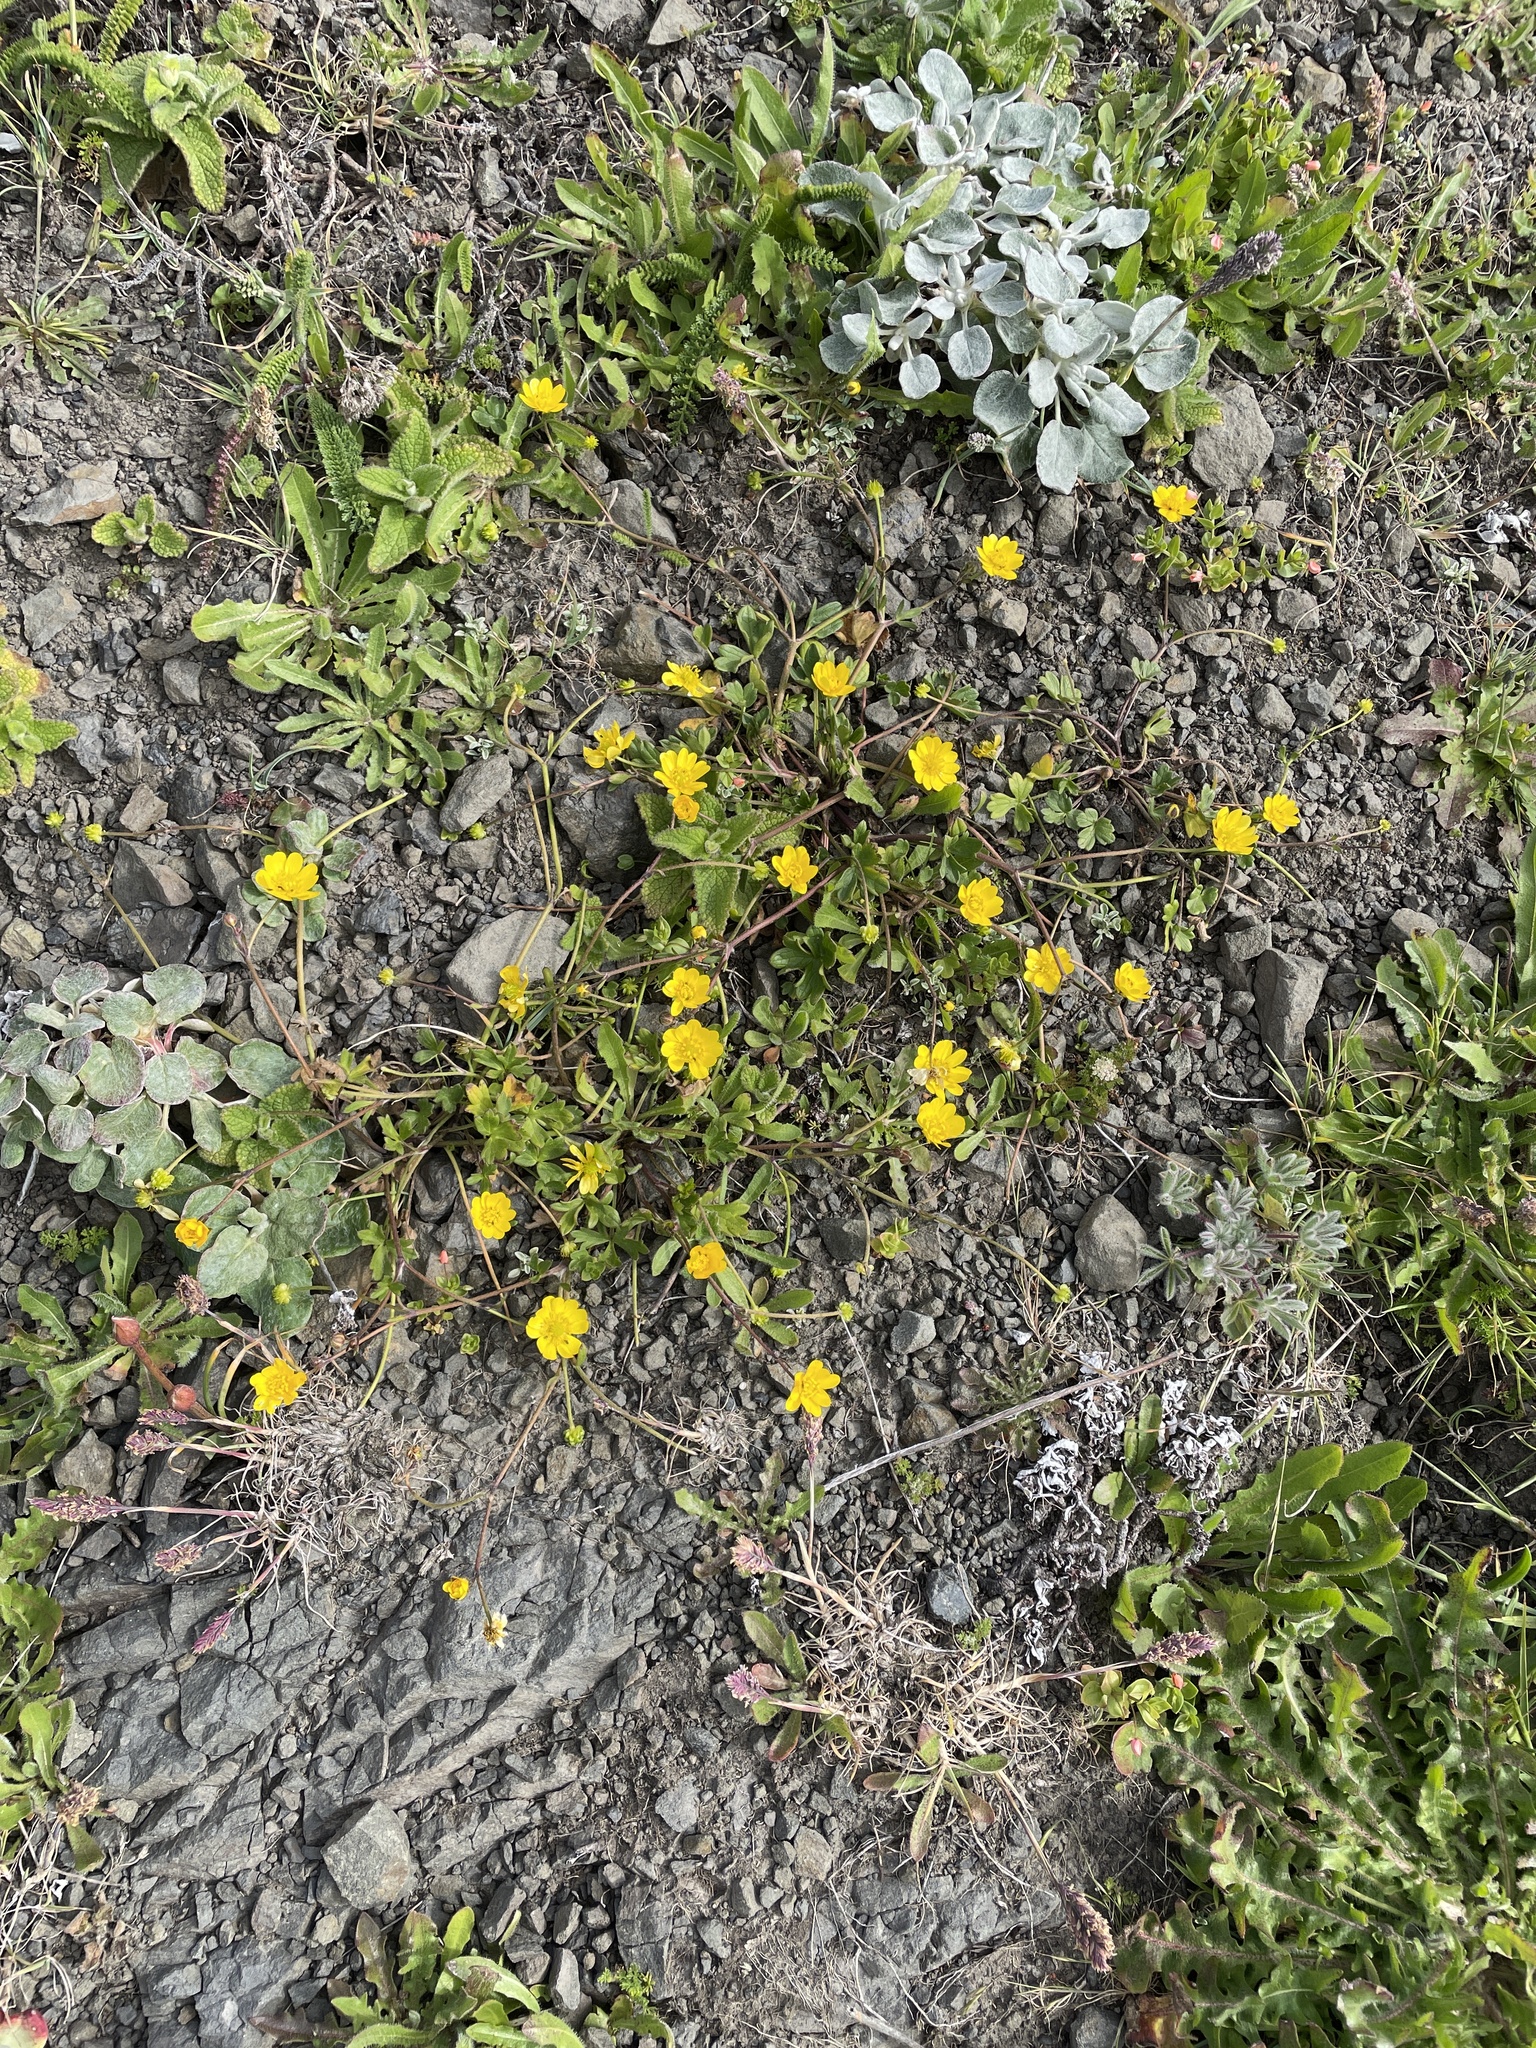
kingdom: Plantae
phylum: Tracheophyta
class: Magnoliopsida
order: Ranunculales
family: Ranunculaceae
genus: Ranunculus
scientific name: Ranunculus californicus
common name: California buttercup
